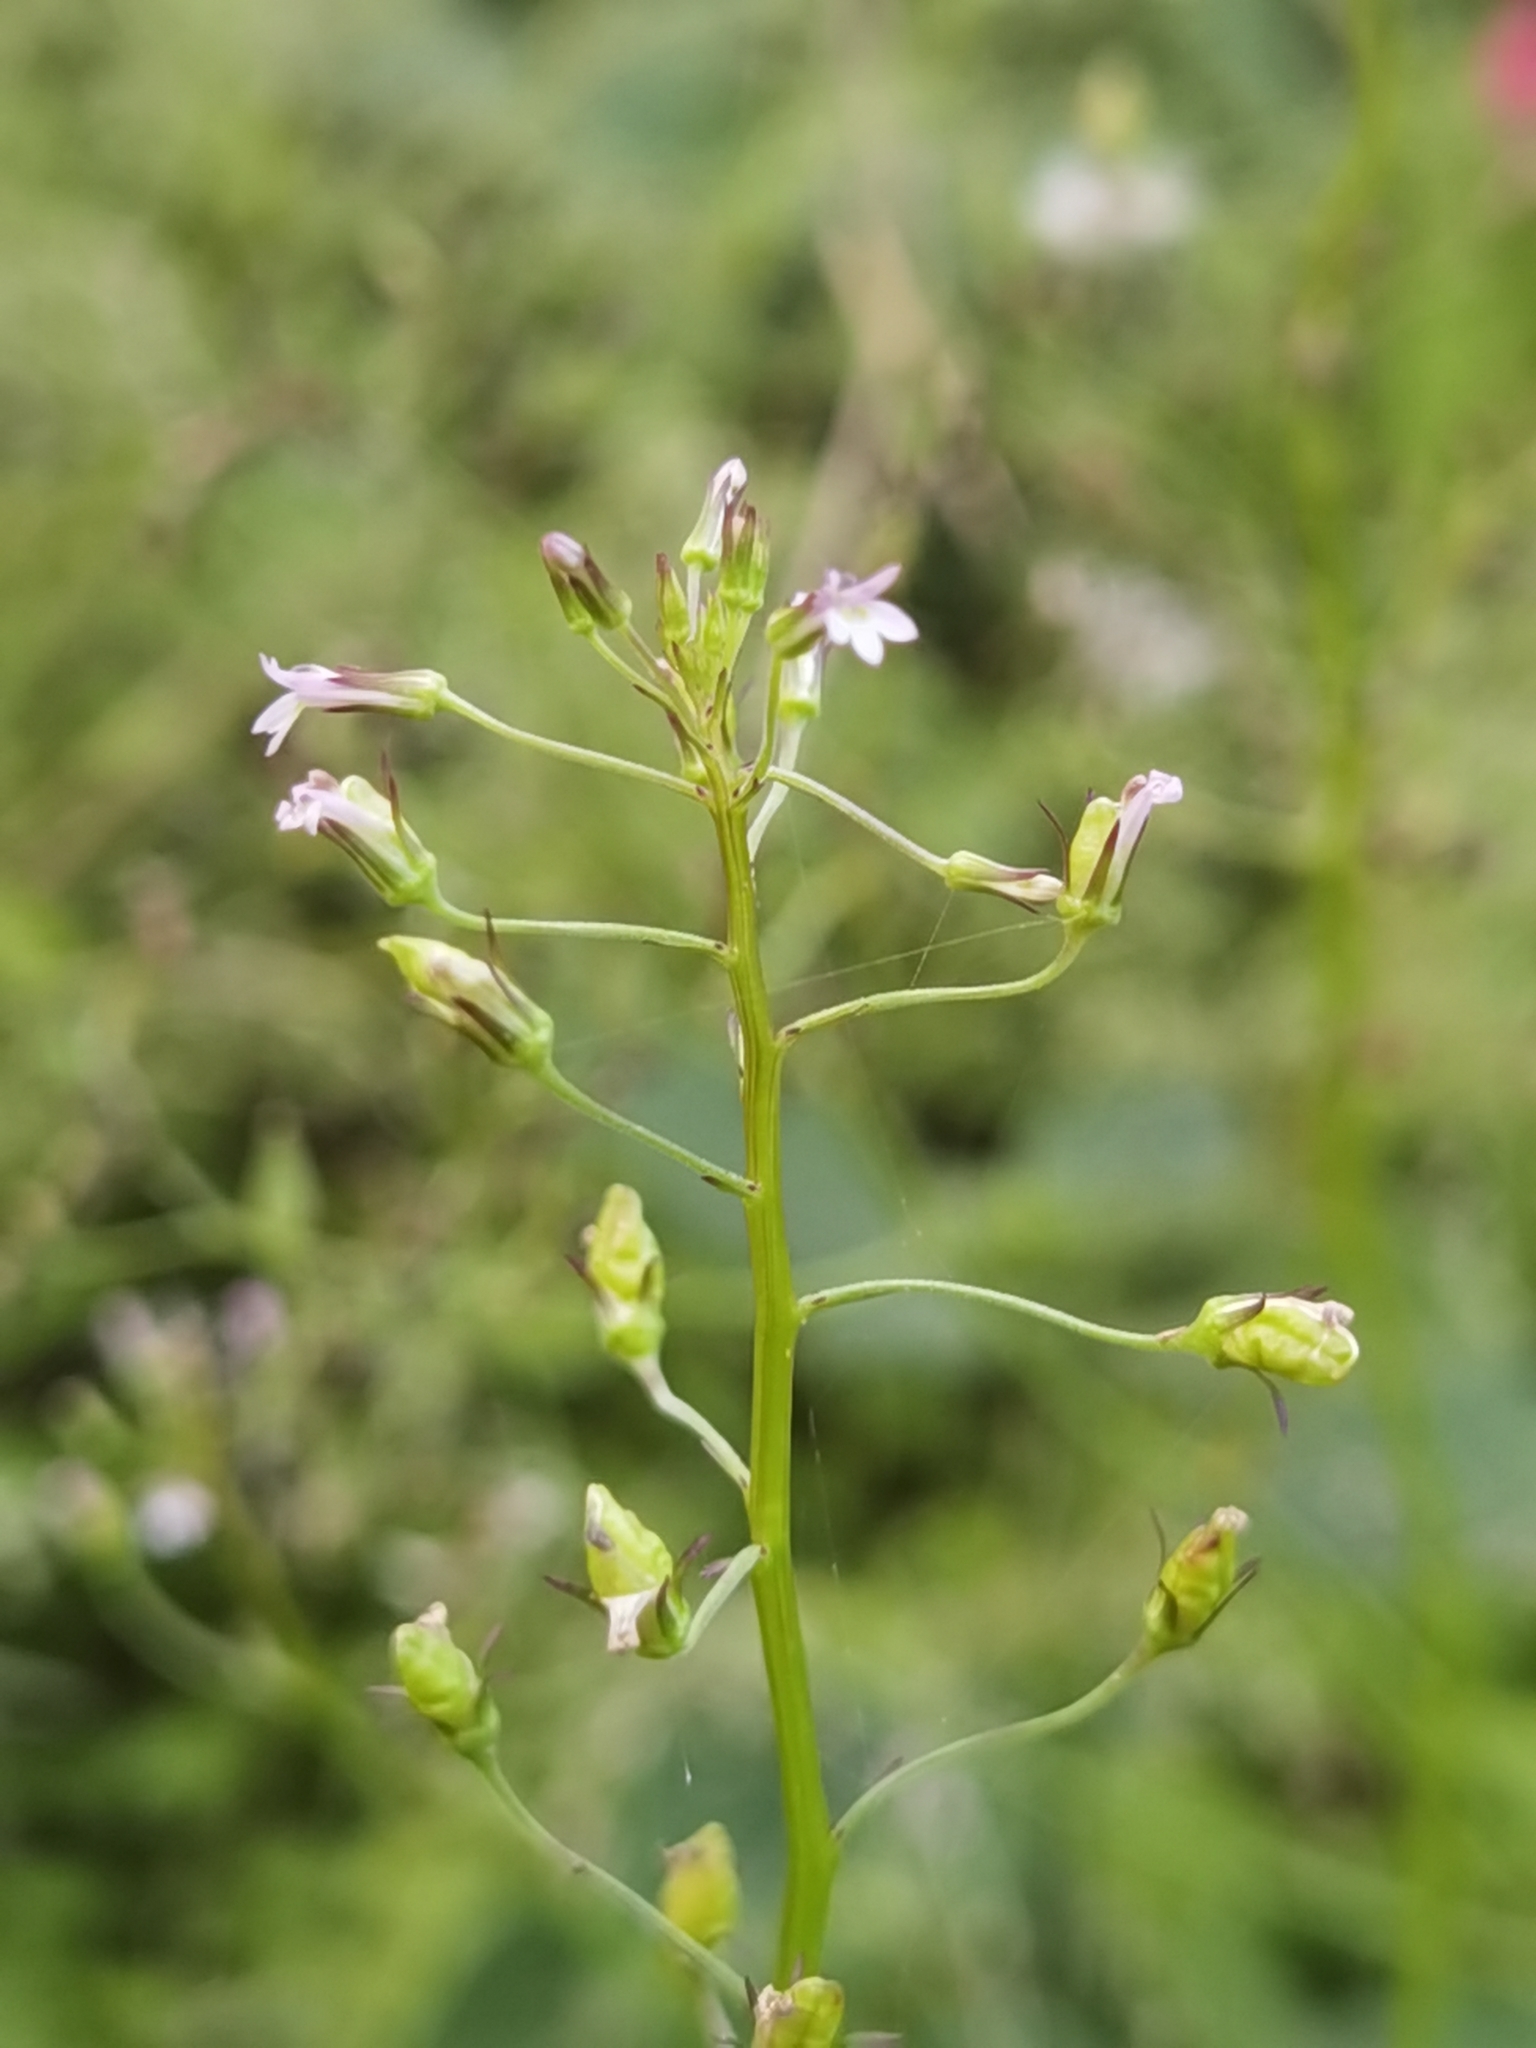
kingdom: Plantae
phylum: Tracheophyta
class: Magnoliopsida
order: Asterales
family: Campanulaceae
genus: Lobelia
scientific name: Lobelia xalapensis
